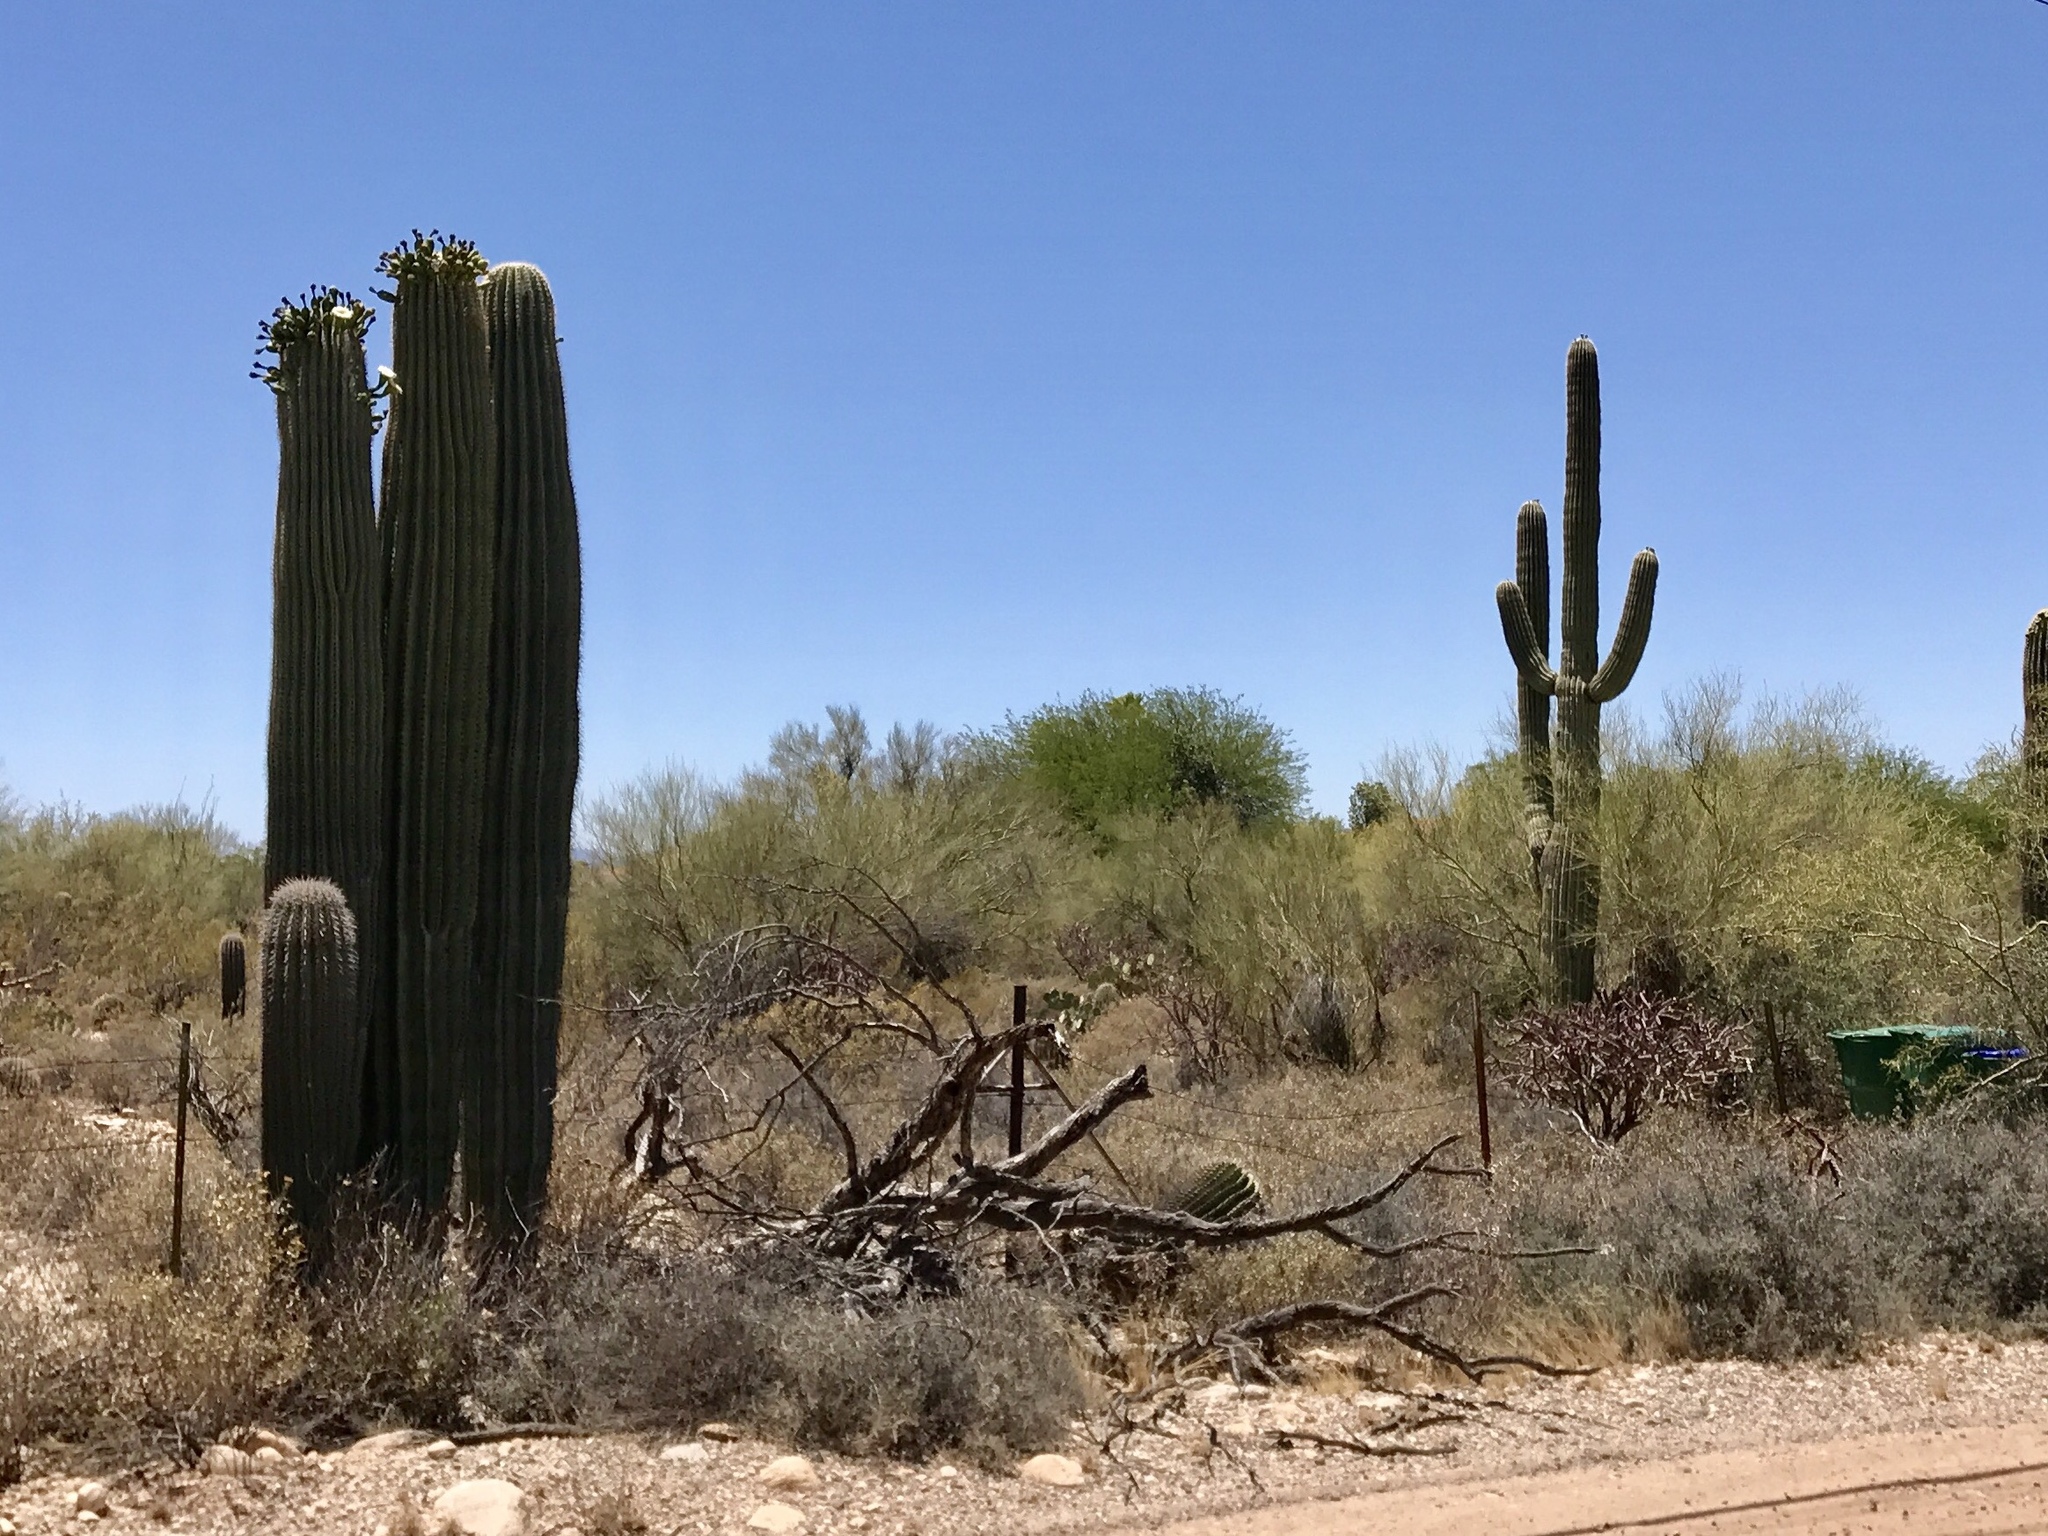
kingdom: Plantae
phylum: Tracheophyta
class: Magnoliopsida
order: Caryophyllales
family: Cactaceae
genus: Carnegiea
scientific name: Carnegiea gigantea
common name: Saguaro
